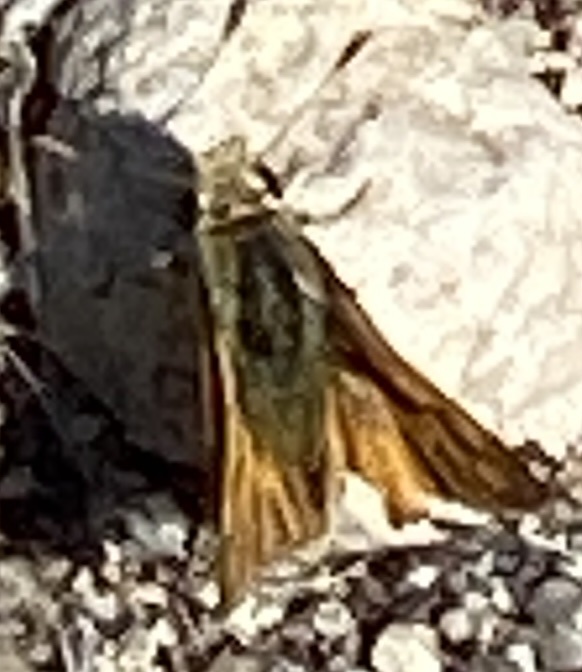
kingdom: Animalia
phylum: Arthropoda
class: Insecta
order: Lepidoptera
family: Hesperiidae
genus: Ochlodes
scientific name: Ochlodes sylvanoides
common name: Woodland skipper
